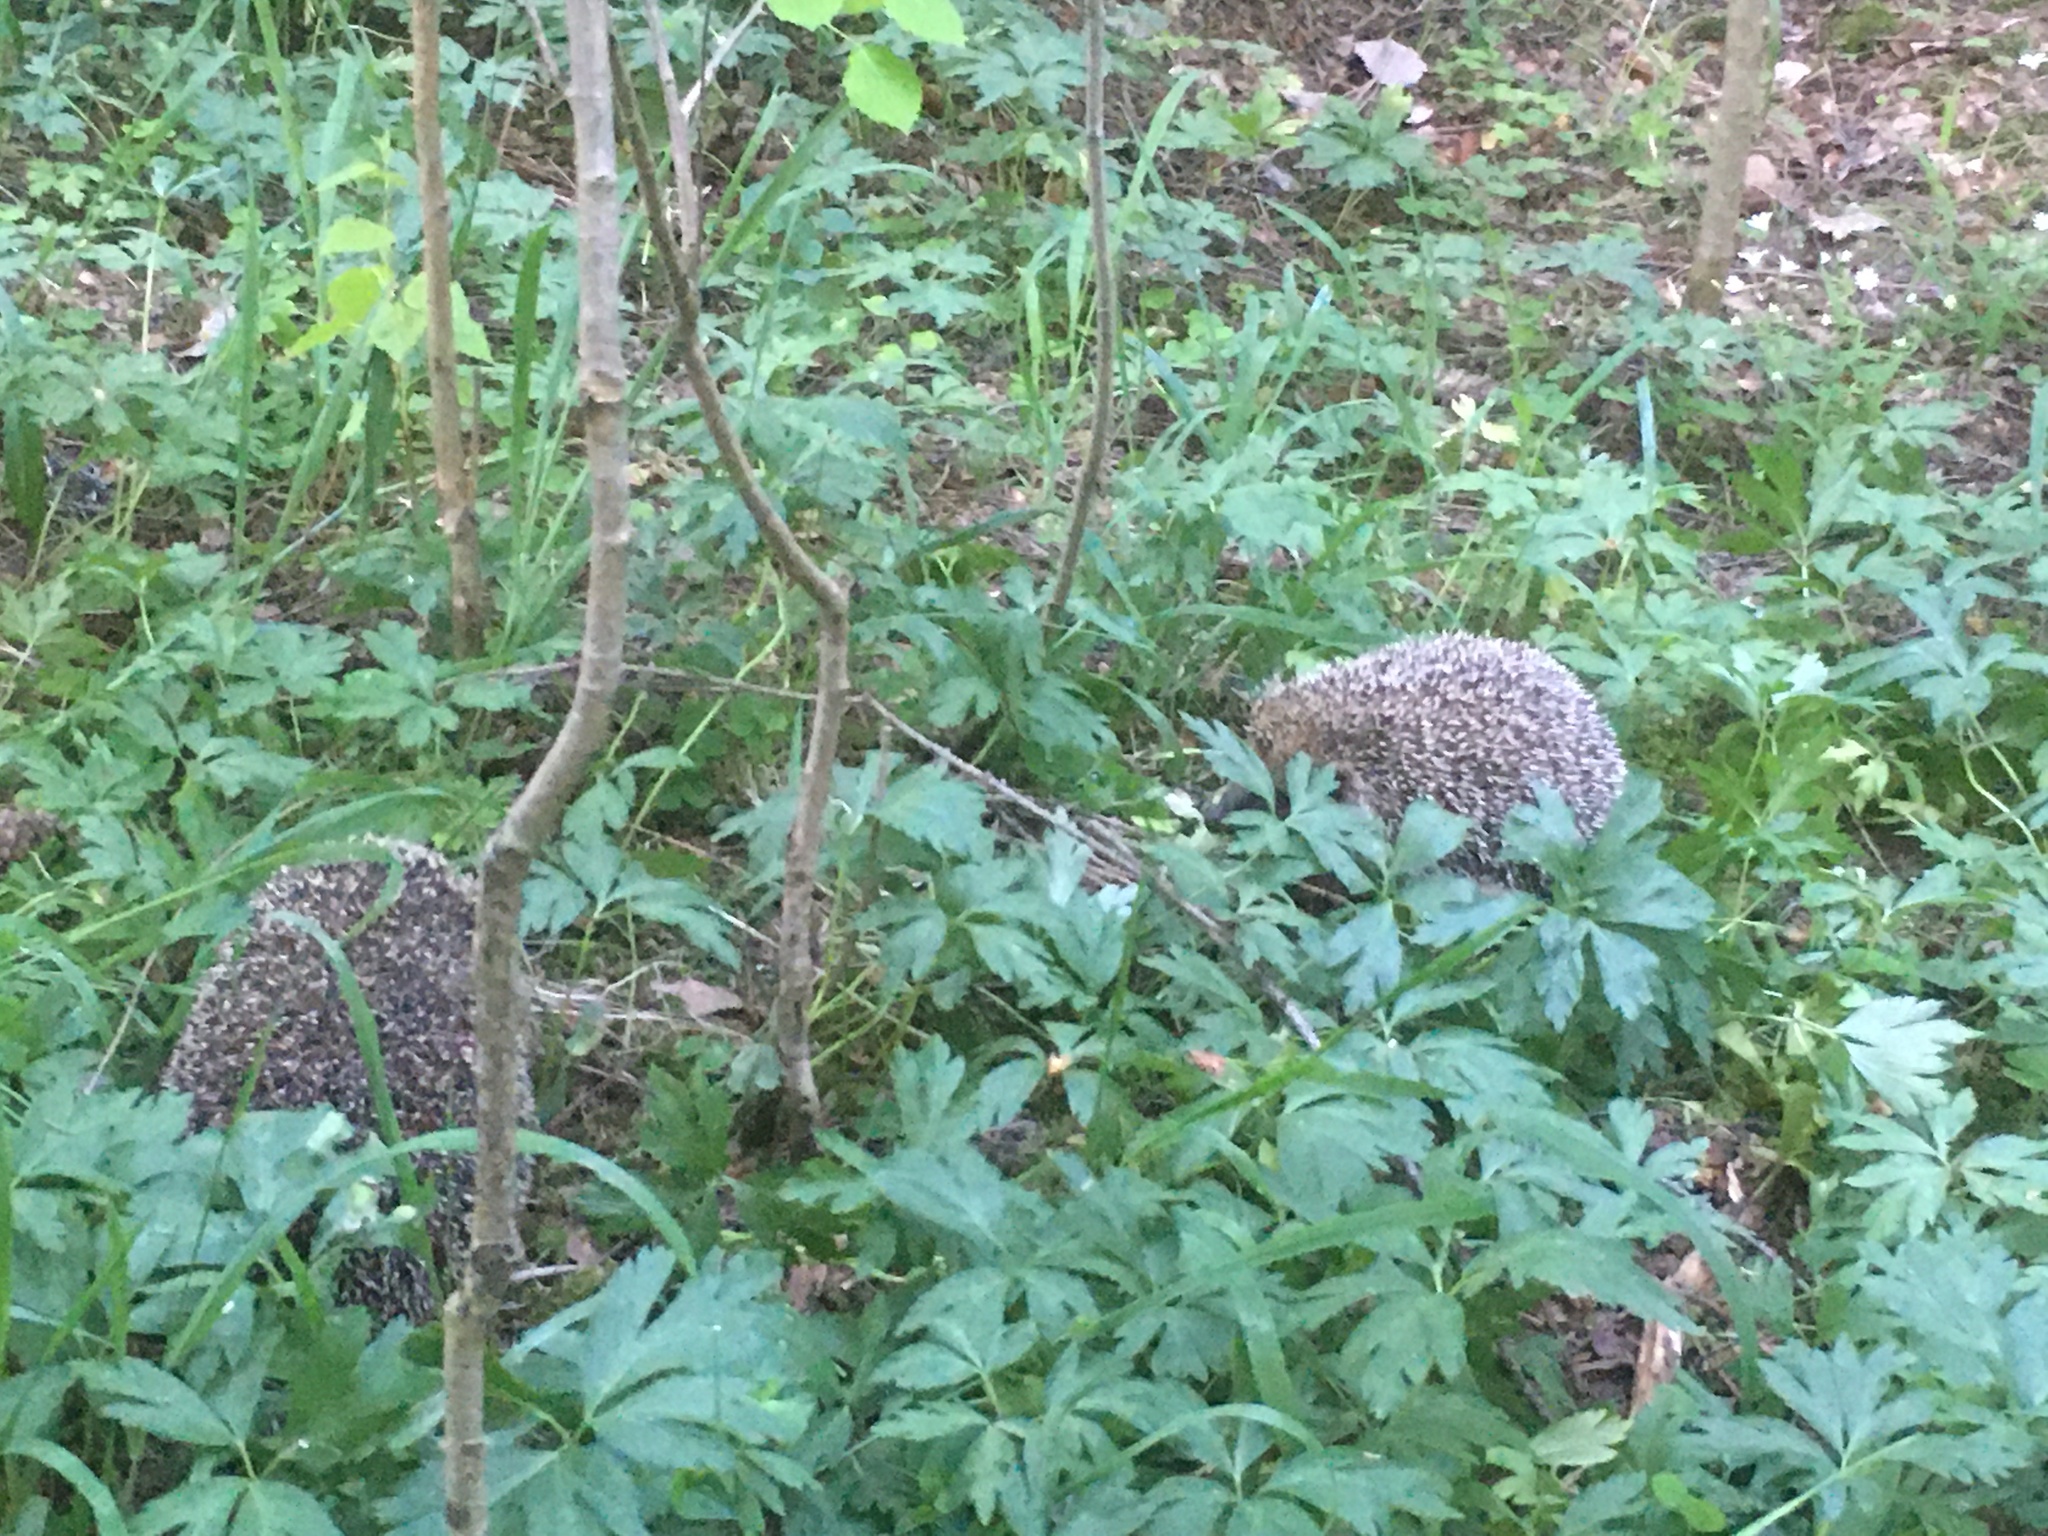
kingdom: Animalia
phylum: Chordata
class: Mammalia
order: Erinaceomorpha
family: Erinaceidae
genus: Erinaceus
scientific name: Erinaceus europaeus
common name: West european hedgehog
